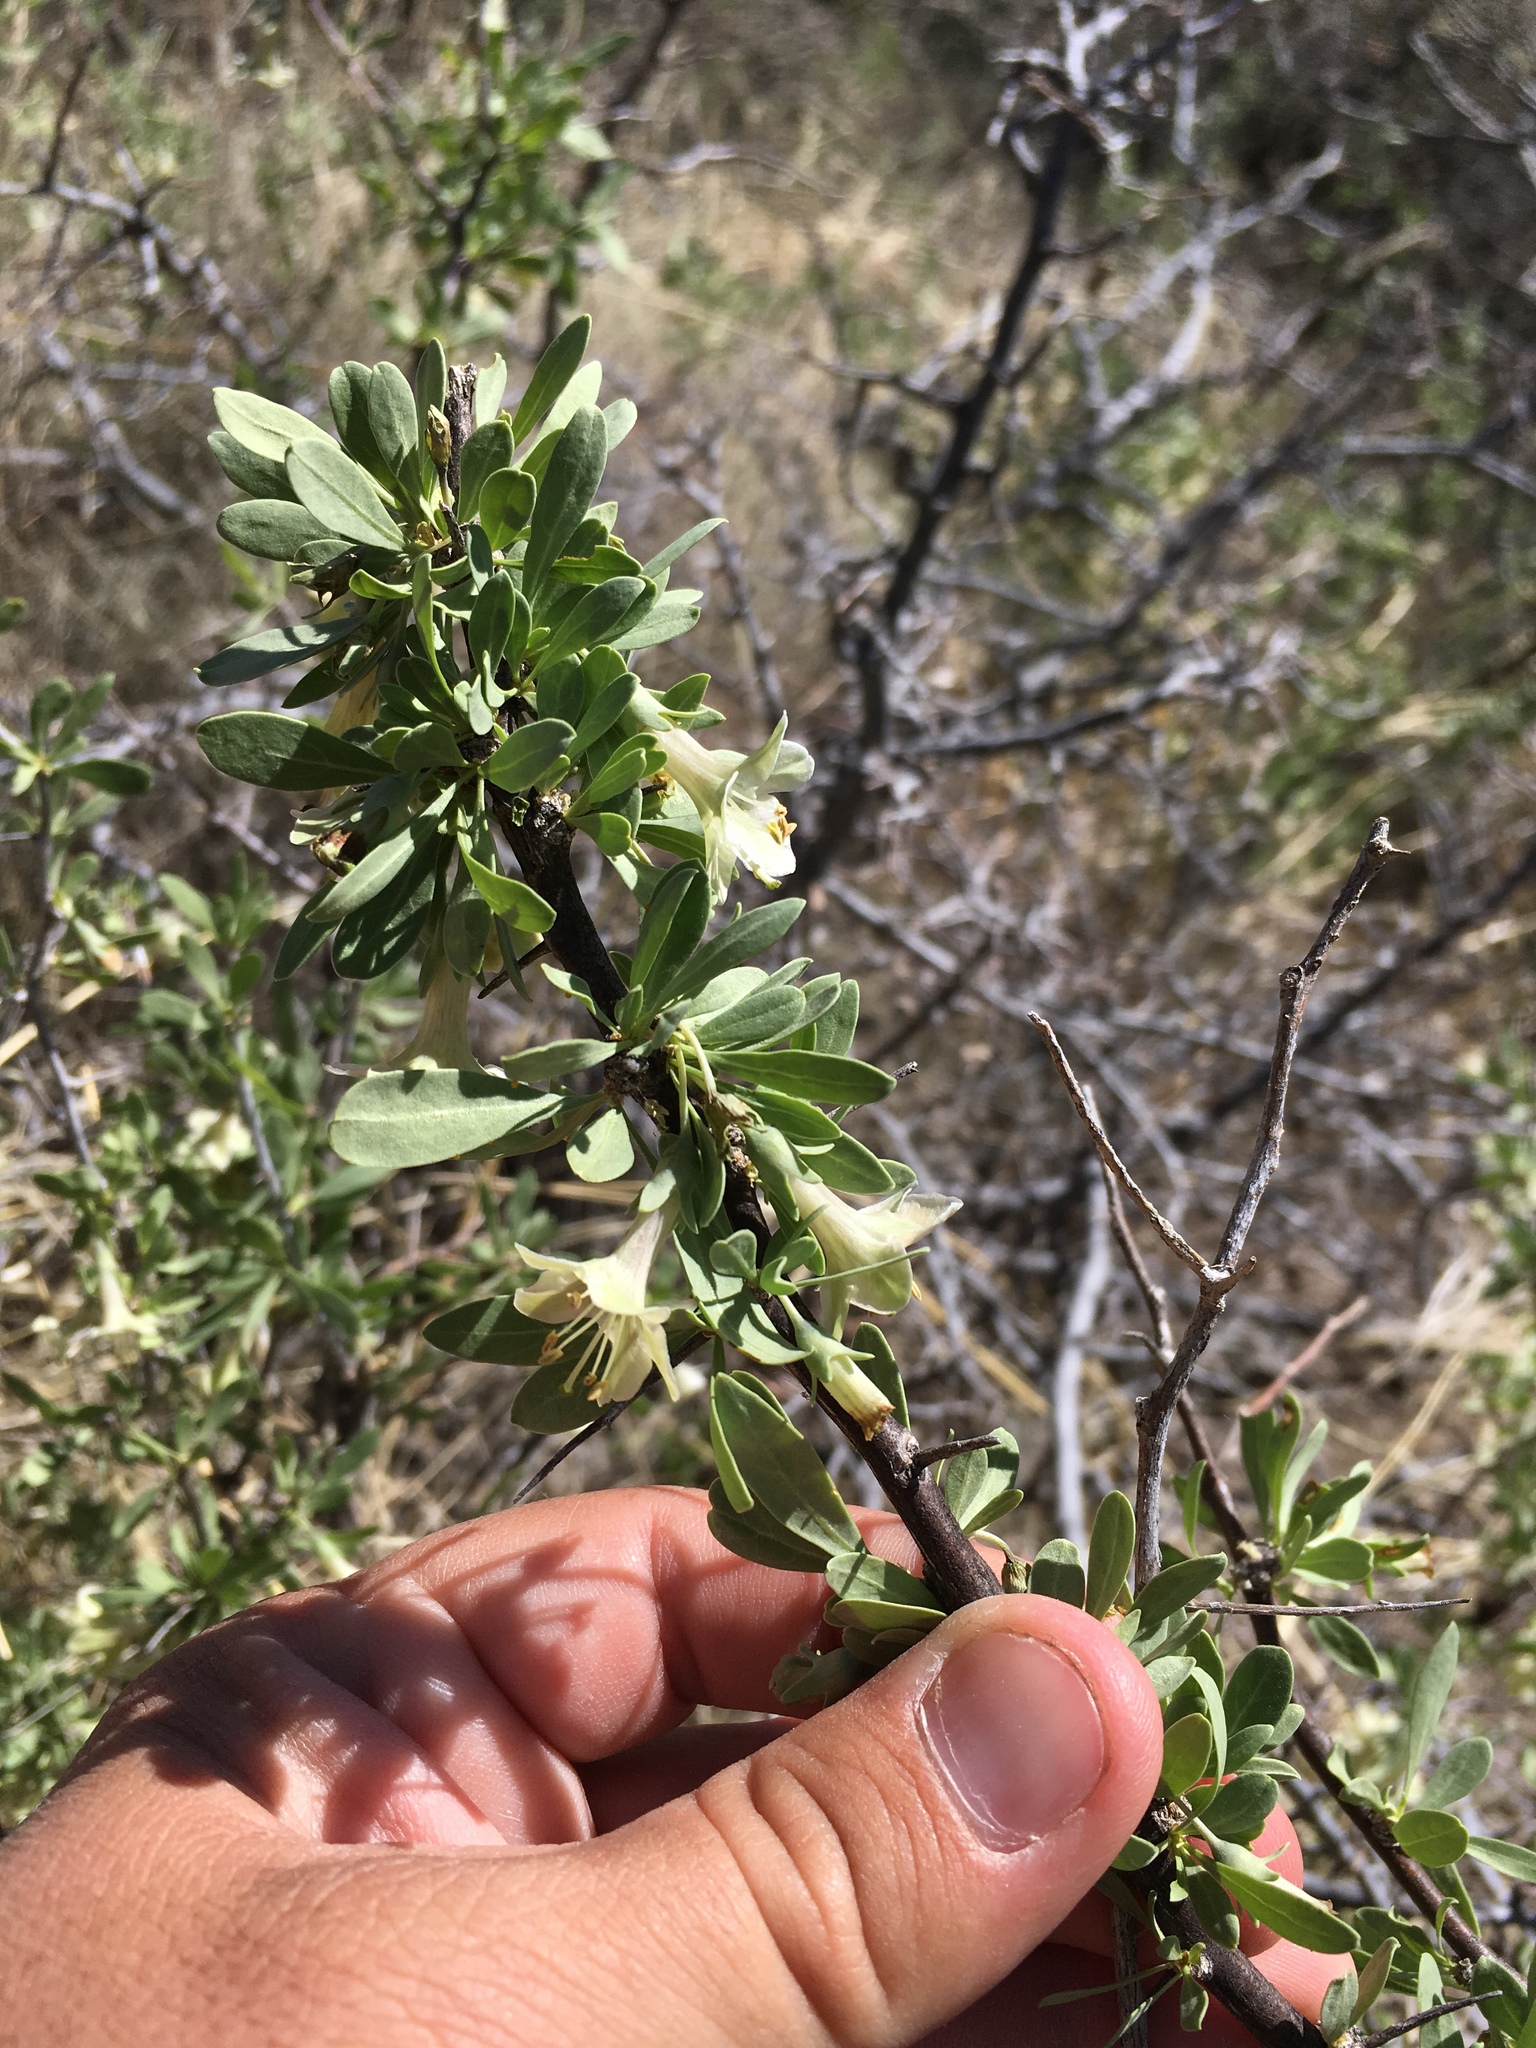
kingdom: Plantae
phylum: Tracheophyta
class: Magnoliopsida
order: Solanales
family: Solanaceae
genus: Lycium
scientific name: Lycium pallidum
